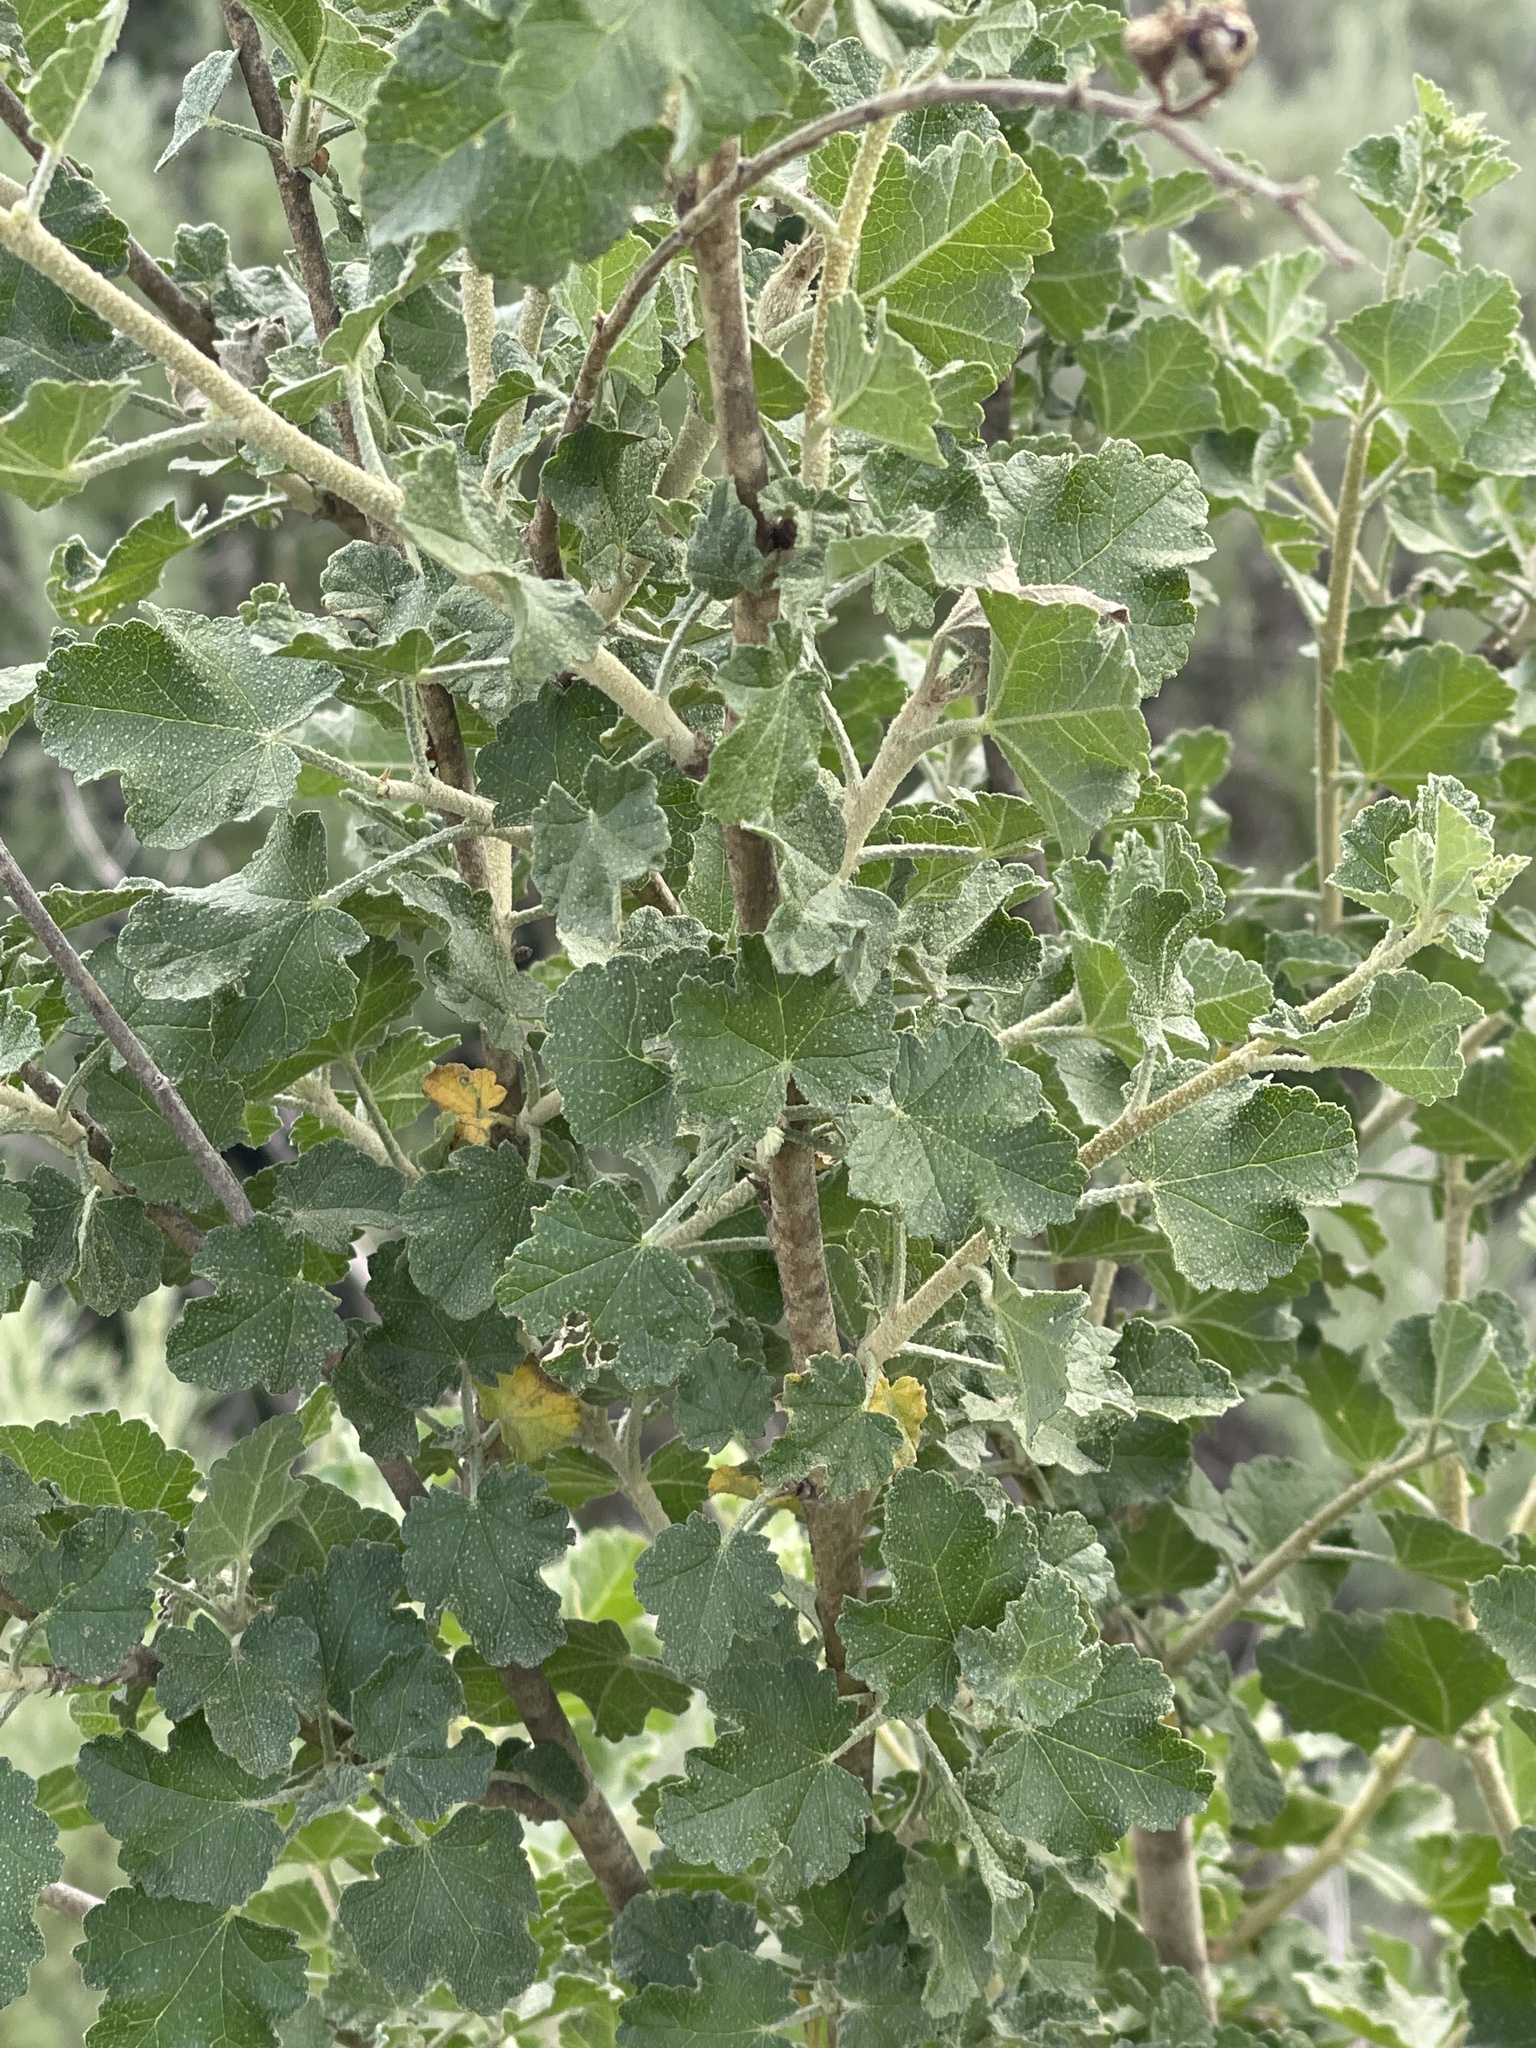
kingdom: Plantae
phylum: Tracheophyta
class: Magnoliopsida
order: Malvales
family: Malvaceae
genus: Malacothamnus
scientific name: Malacothamnus fasciculatus
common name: Sant cruz island bush-mallow
